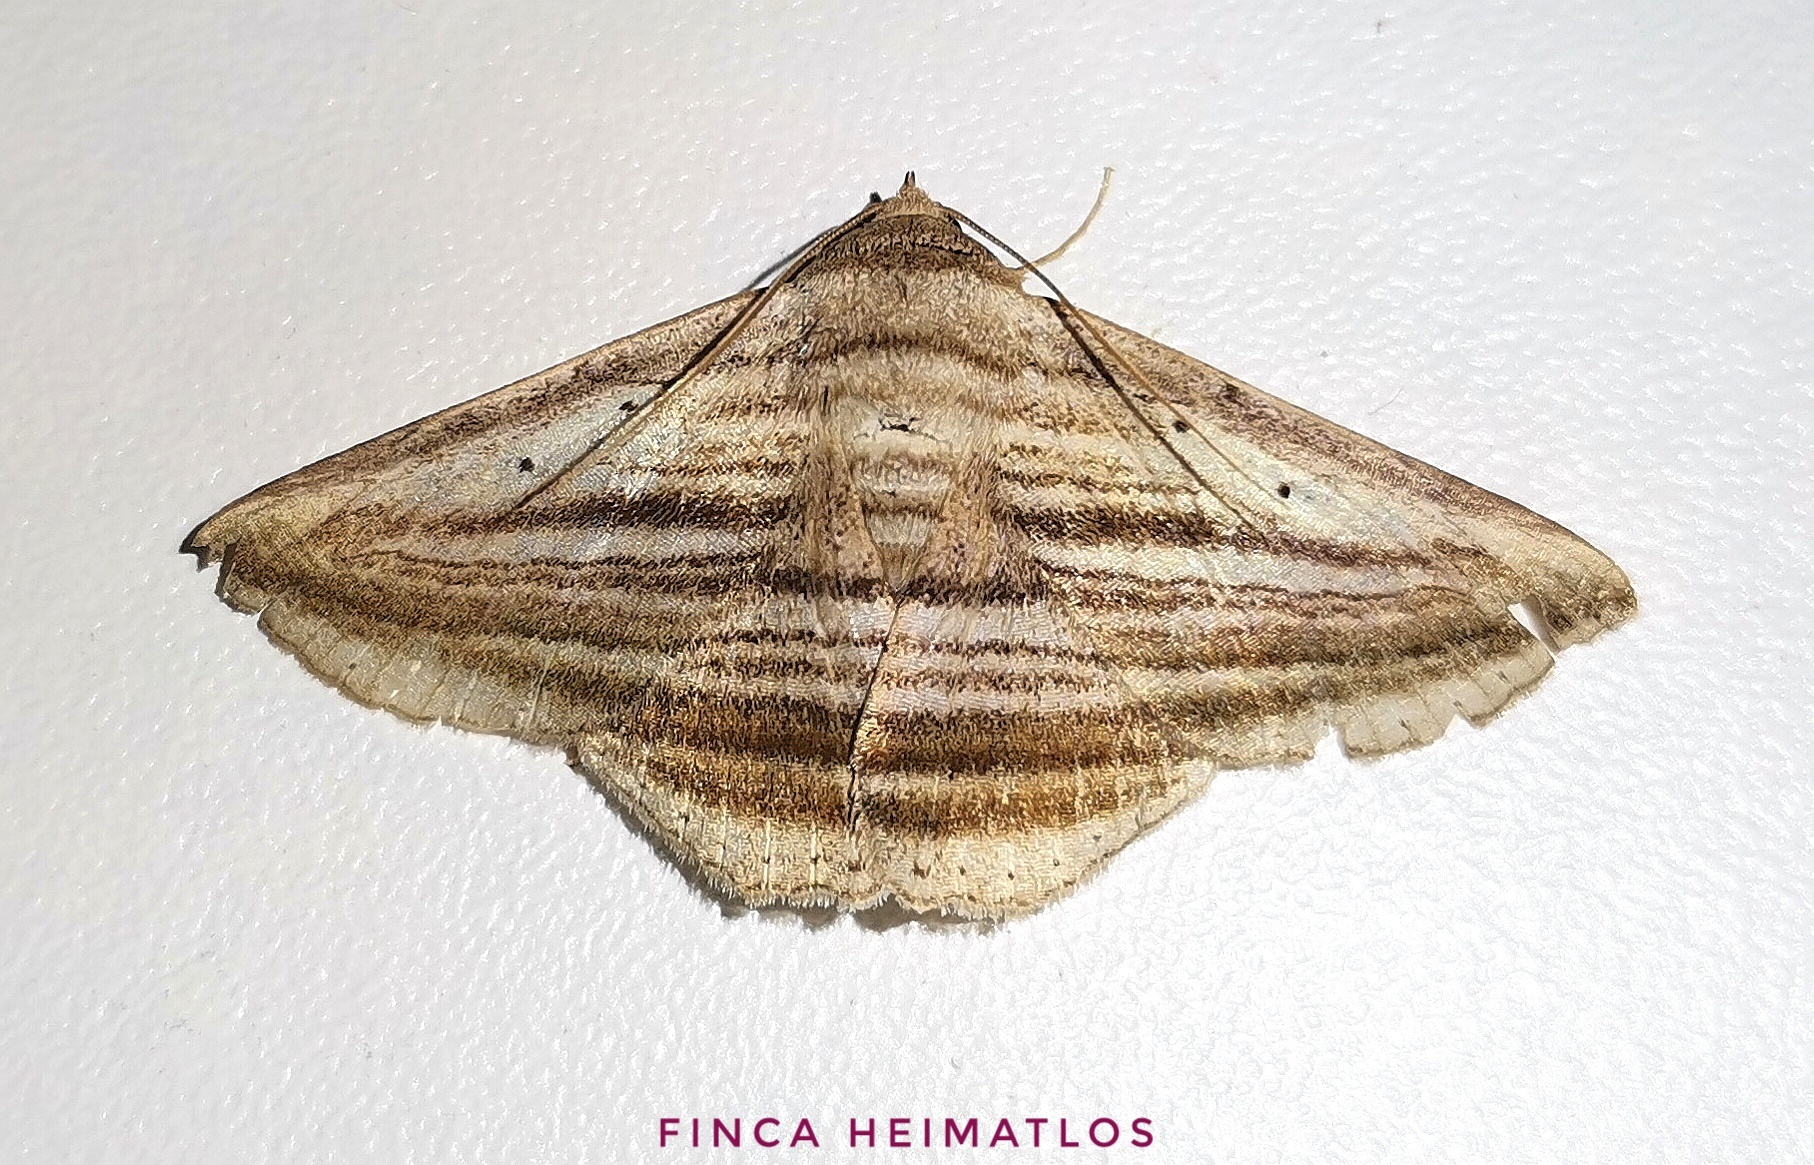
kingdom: Animalia
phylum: Arthropoda
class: Insecta
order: Lepidoptera
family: Erebidae
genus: Itomia
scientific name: Itomia multilinea
